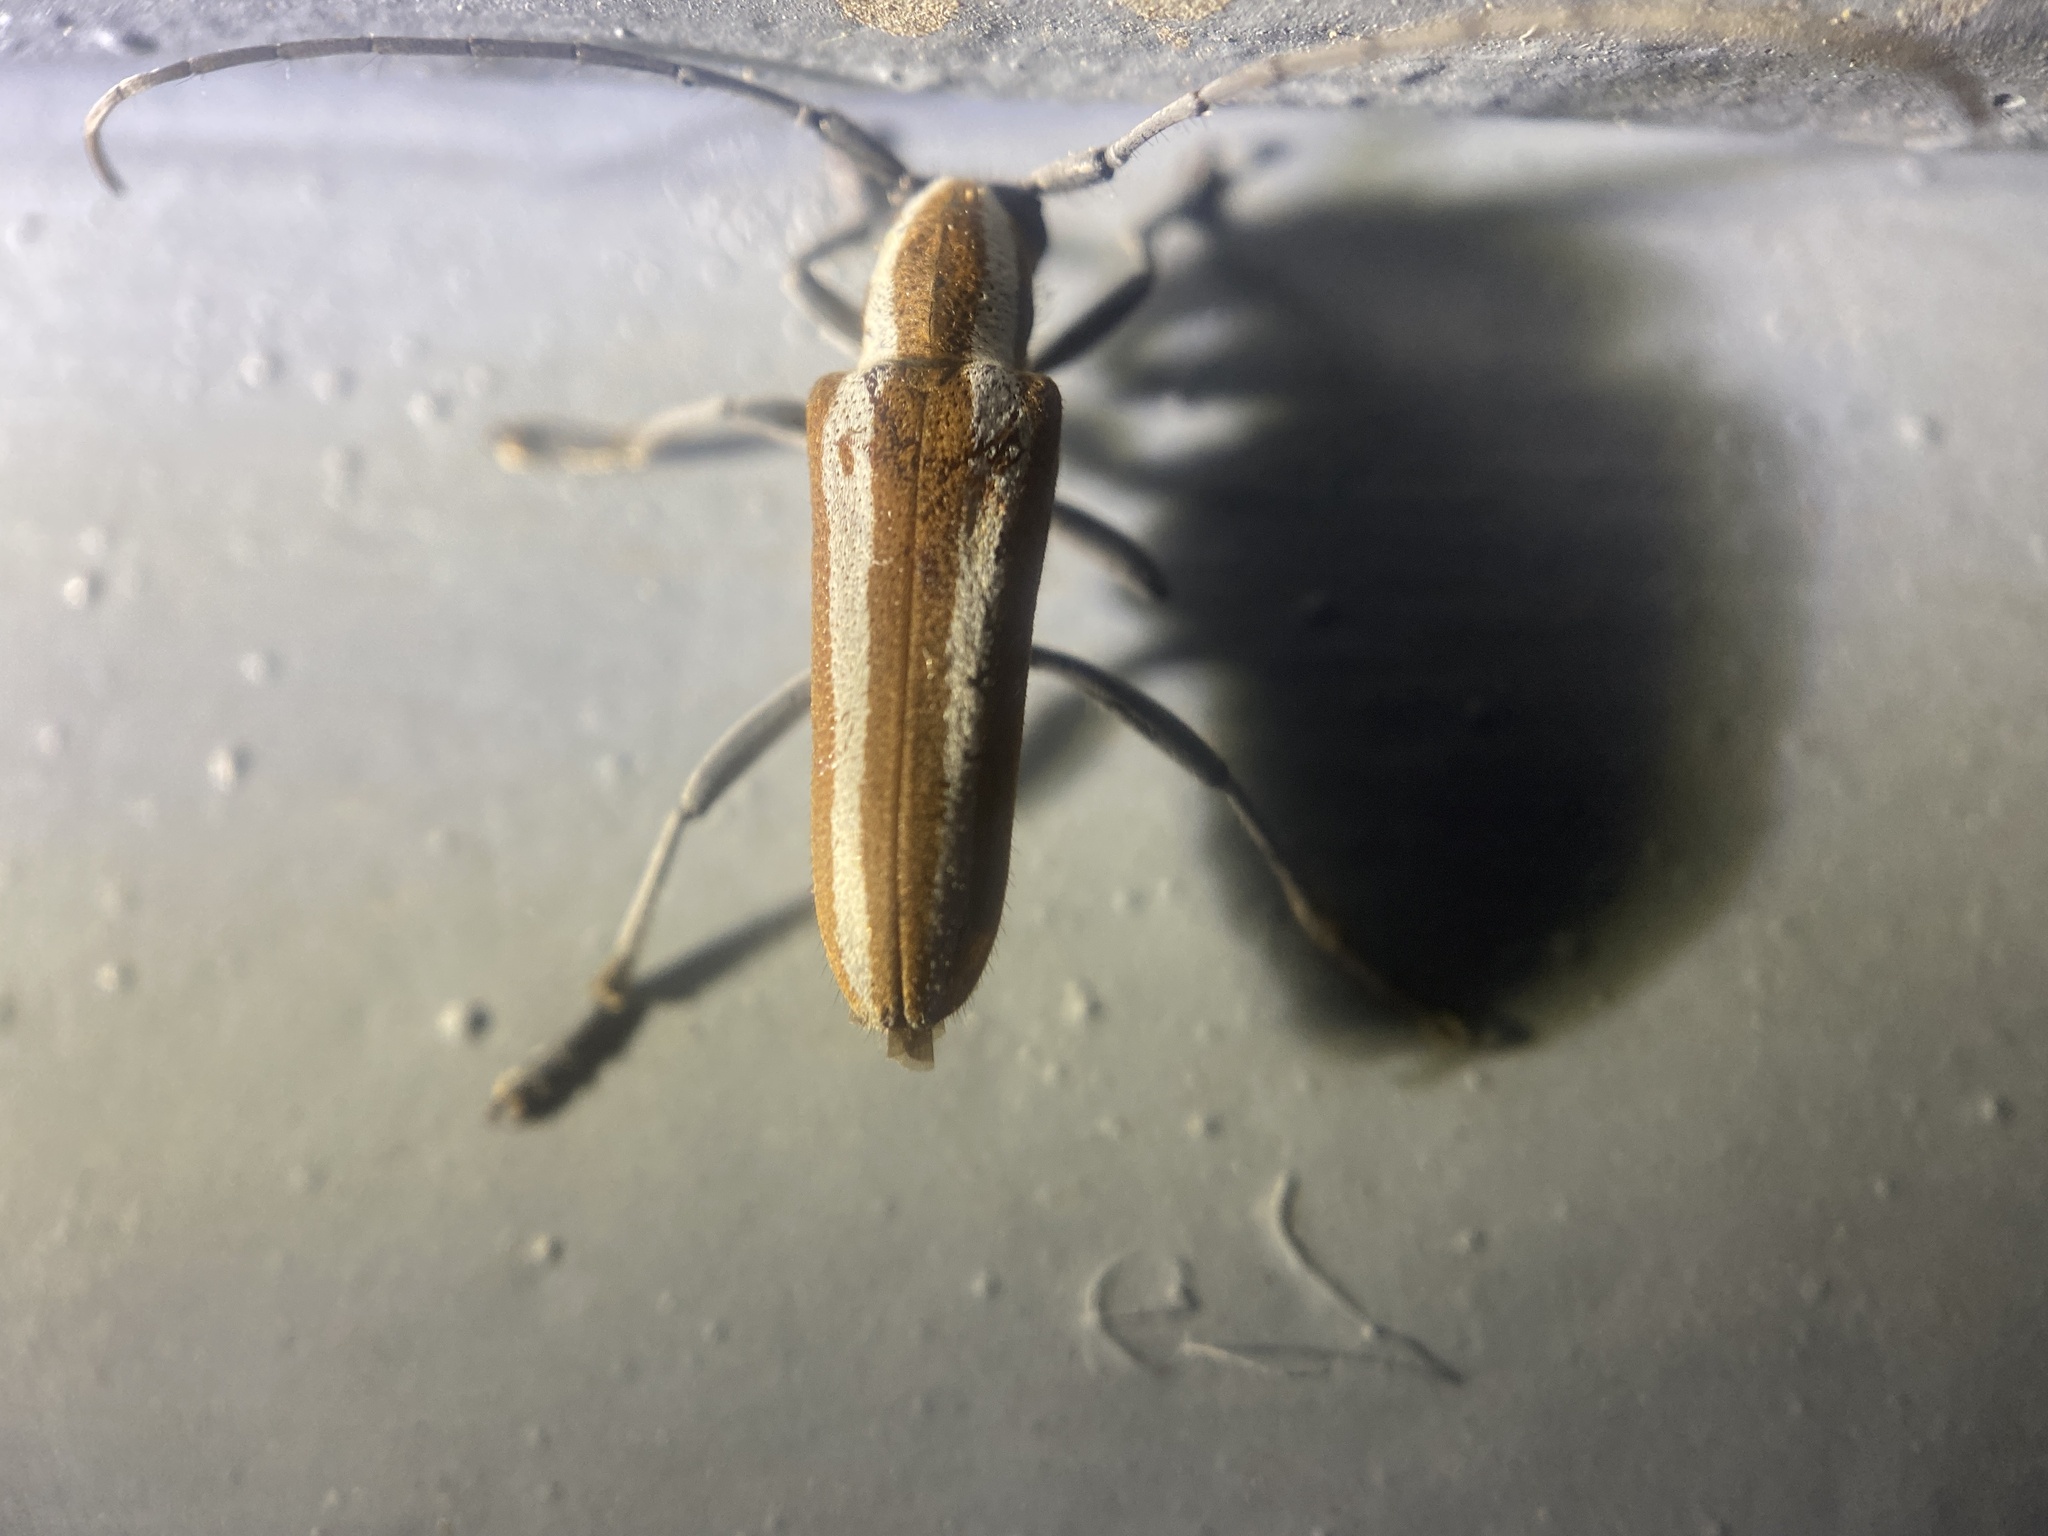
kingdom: Animalia
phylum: Arthropoda
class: Insecta
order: Coleoptera
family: Cerambycidae
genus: Saperda
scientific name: Saperda candida
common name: Round-headed borer
